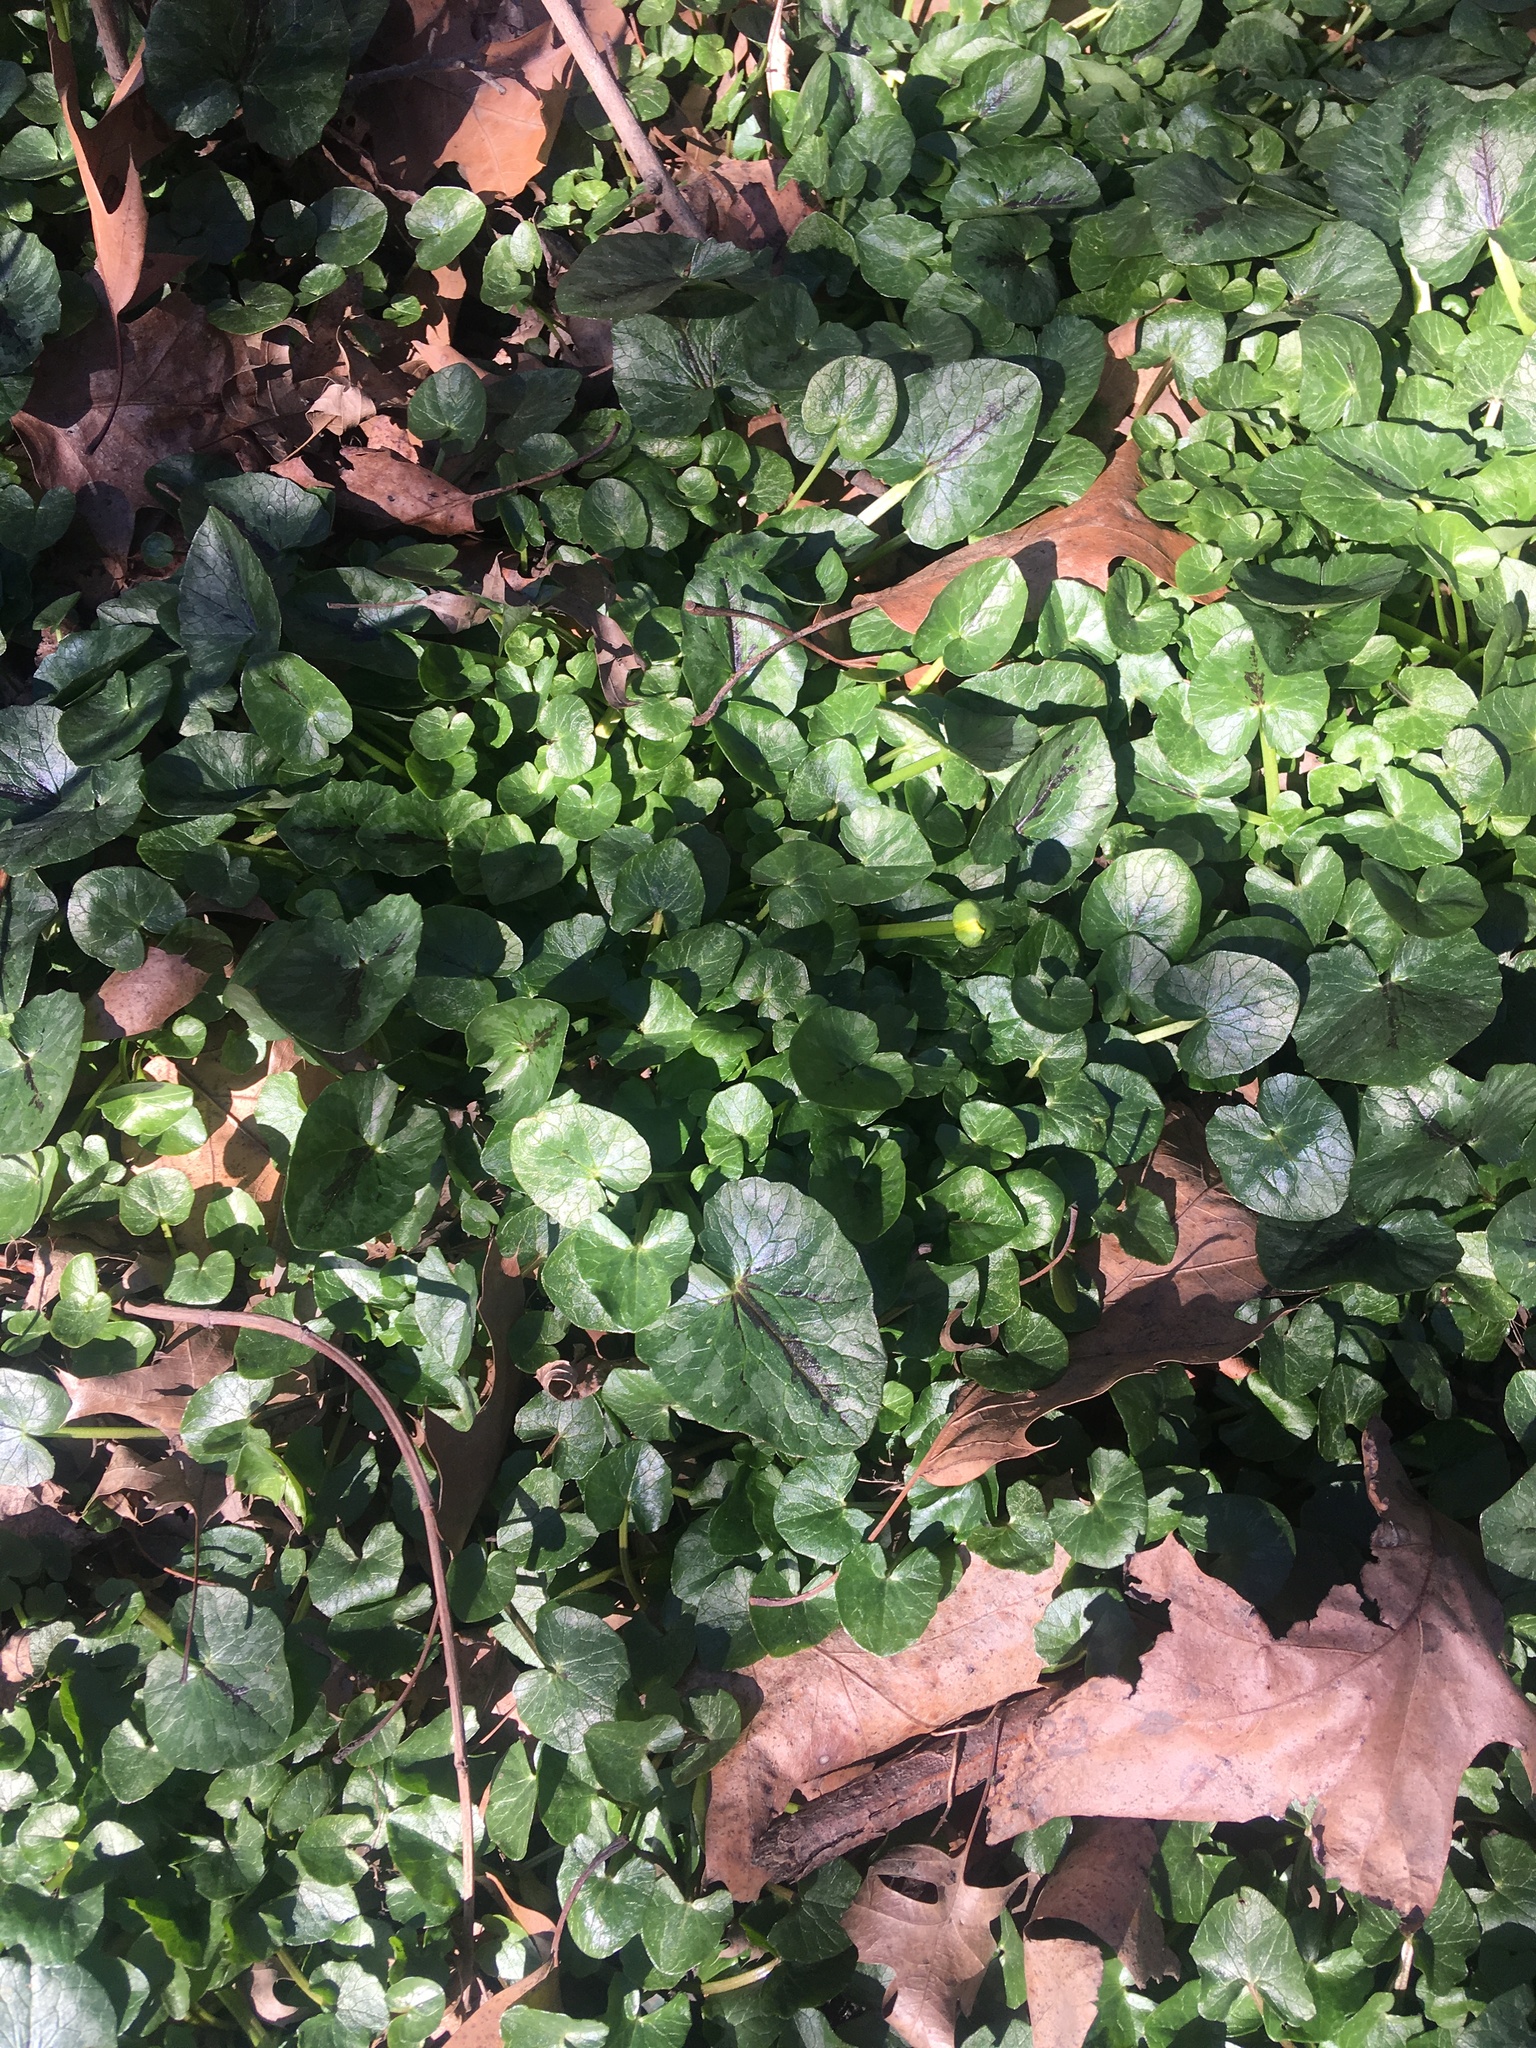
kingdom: Plantae
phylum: Tracheophyta
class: Magnoliopsida
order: Ranunculales
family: Ranunculaceae
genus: Ficaria
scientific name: Ficaria verna
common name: Lesser celandine
